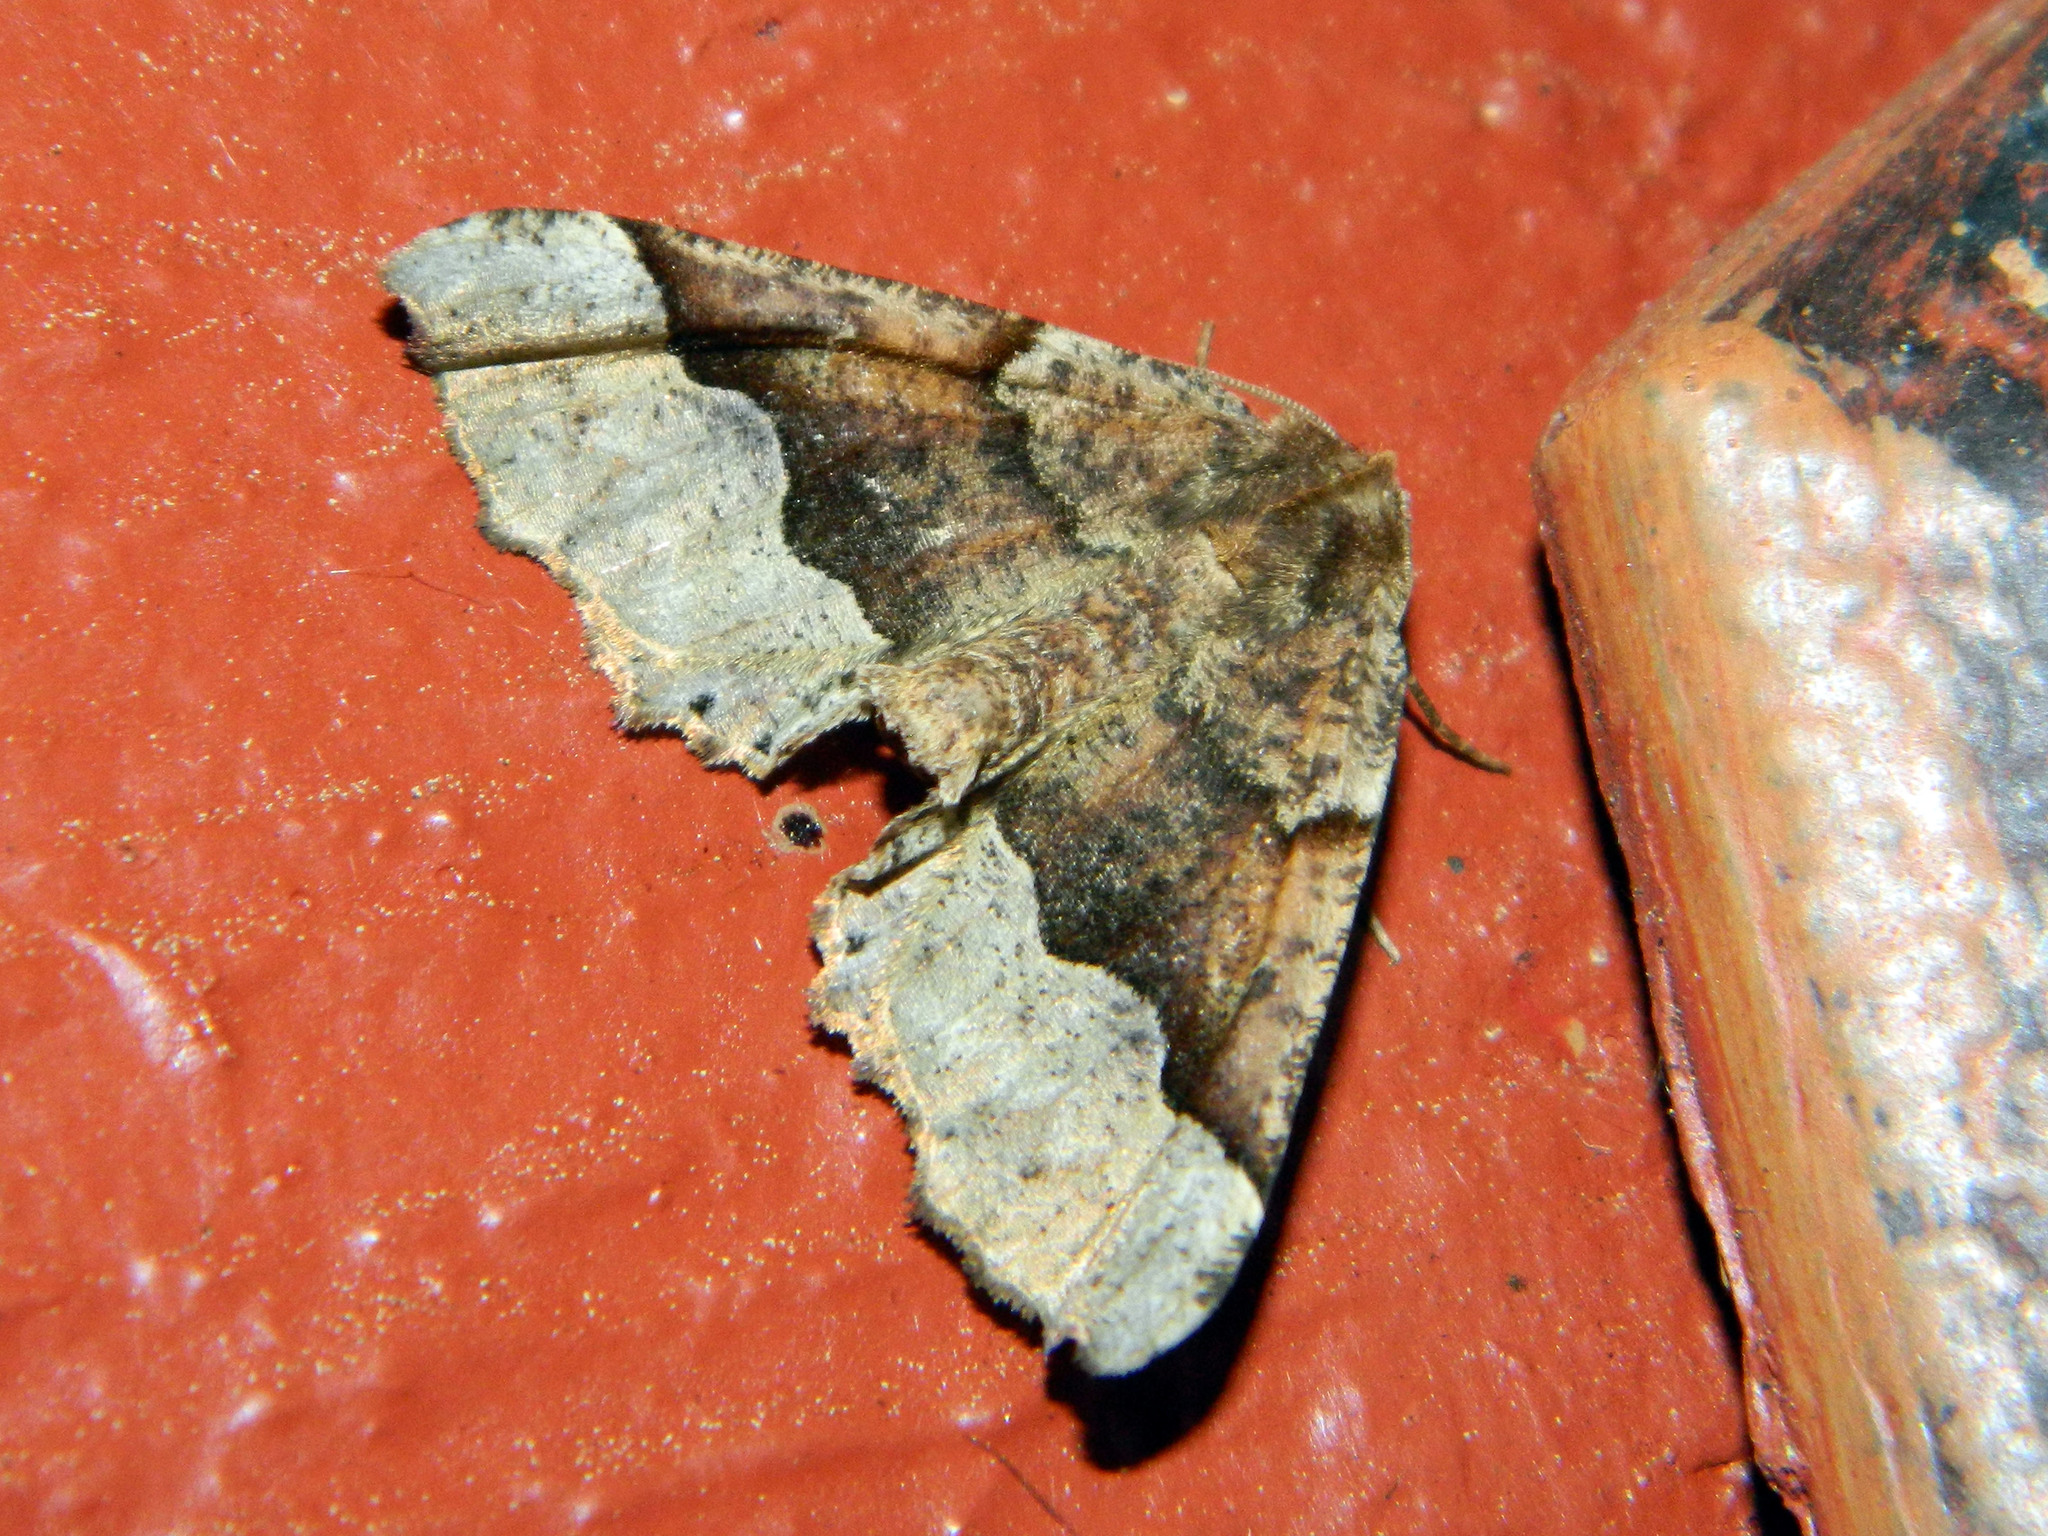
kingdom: Animalia
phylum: Arthropoda
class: Insecta
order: Lepidoptera
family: Geometridae
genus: Pero
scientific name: Pero morrisonaria
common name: Morrison's pero
